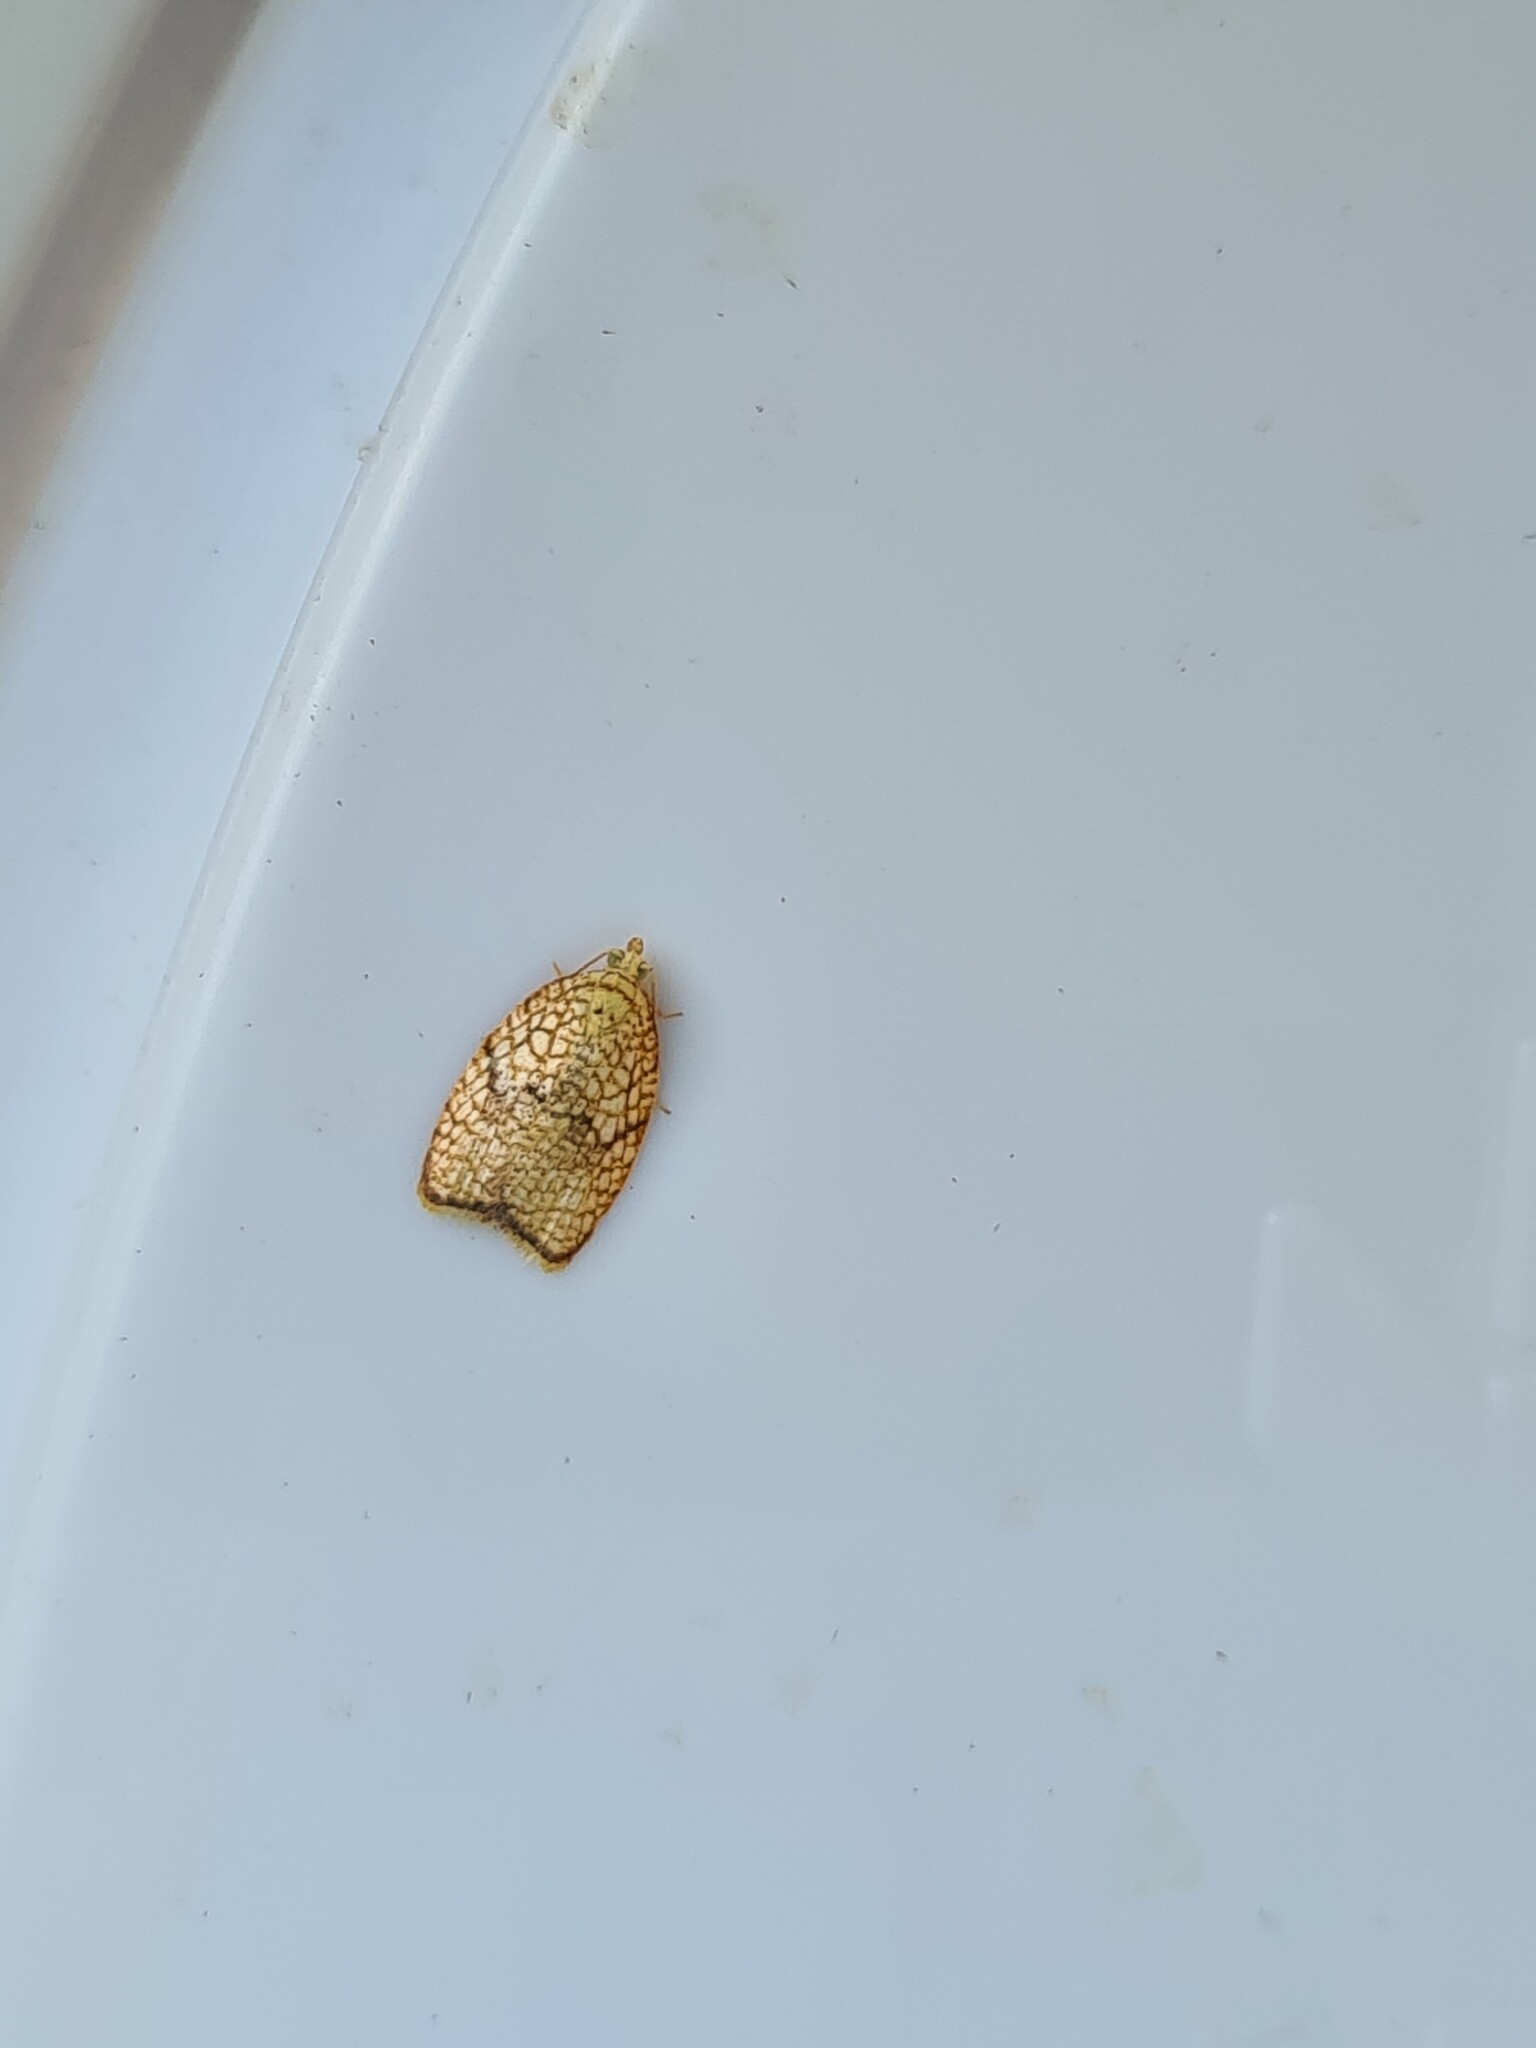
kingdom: Animalia
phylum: Arthropoda
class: Insecta
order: Lepidoptera
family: Tortricidae
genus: Acleris
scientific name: Acleris forsskaleana
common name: Maple button
